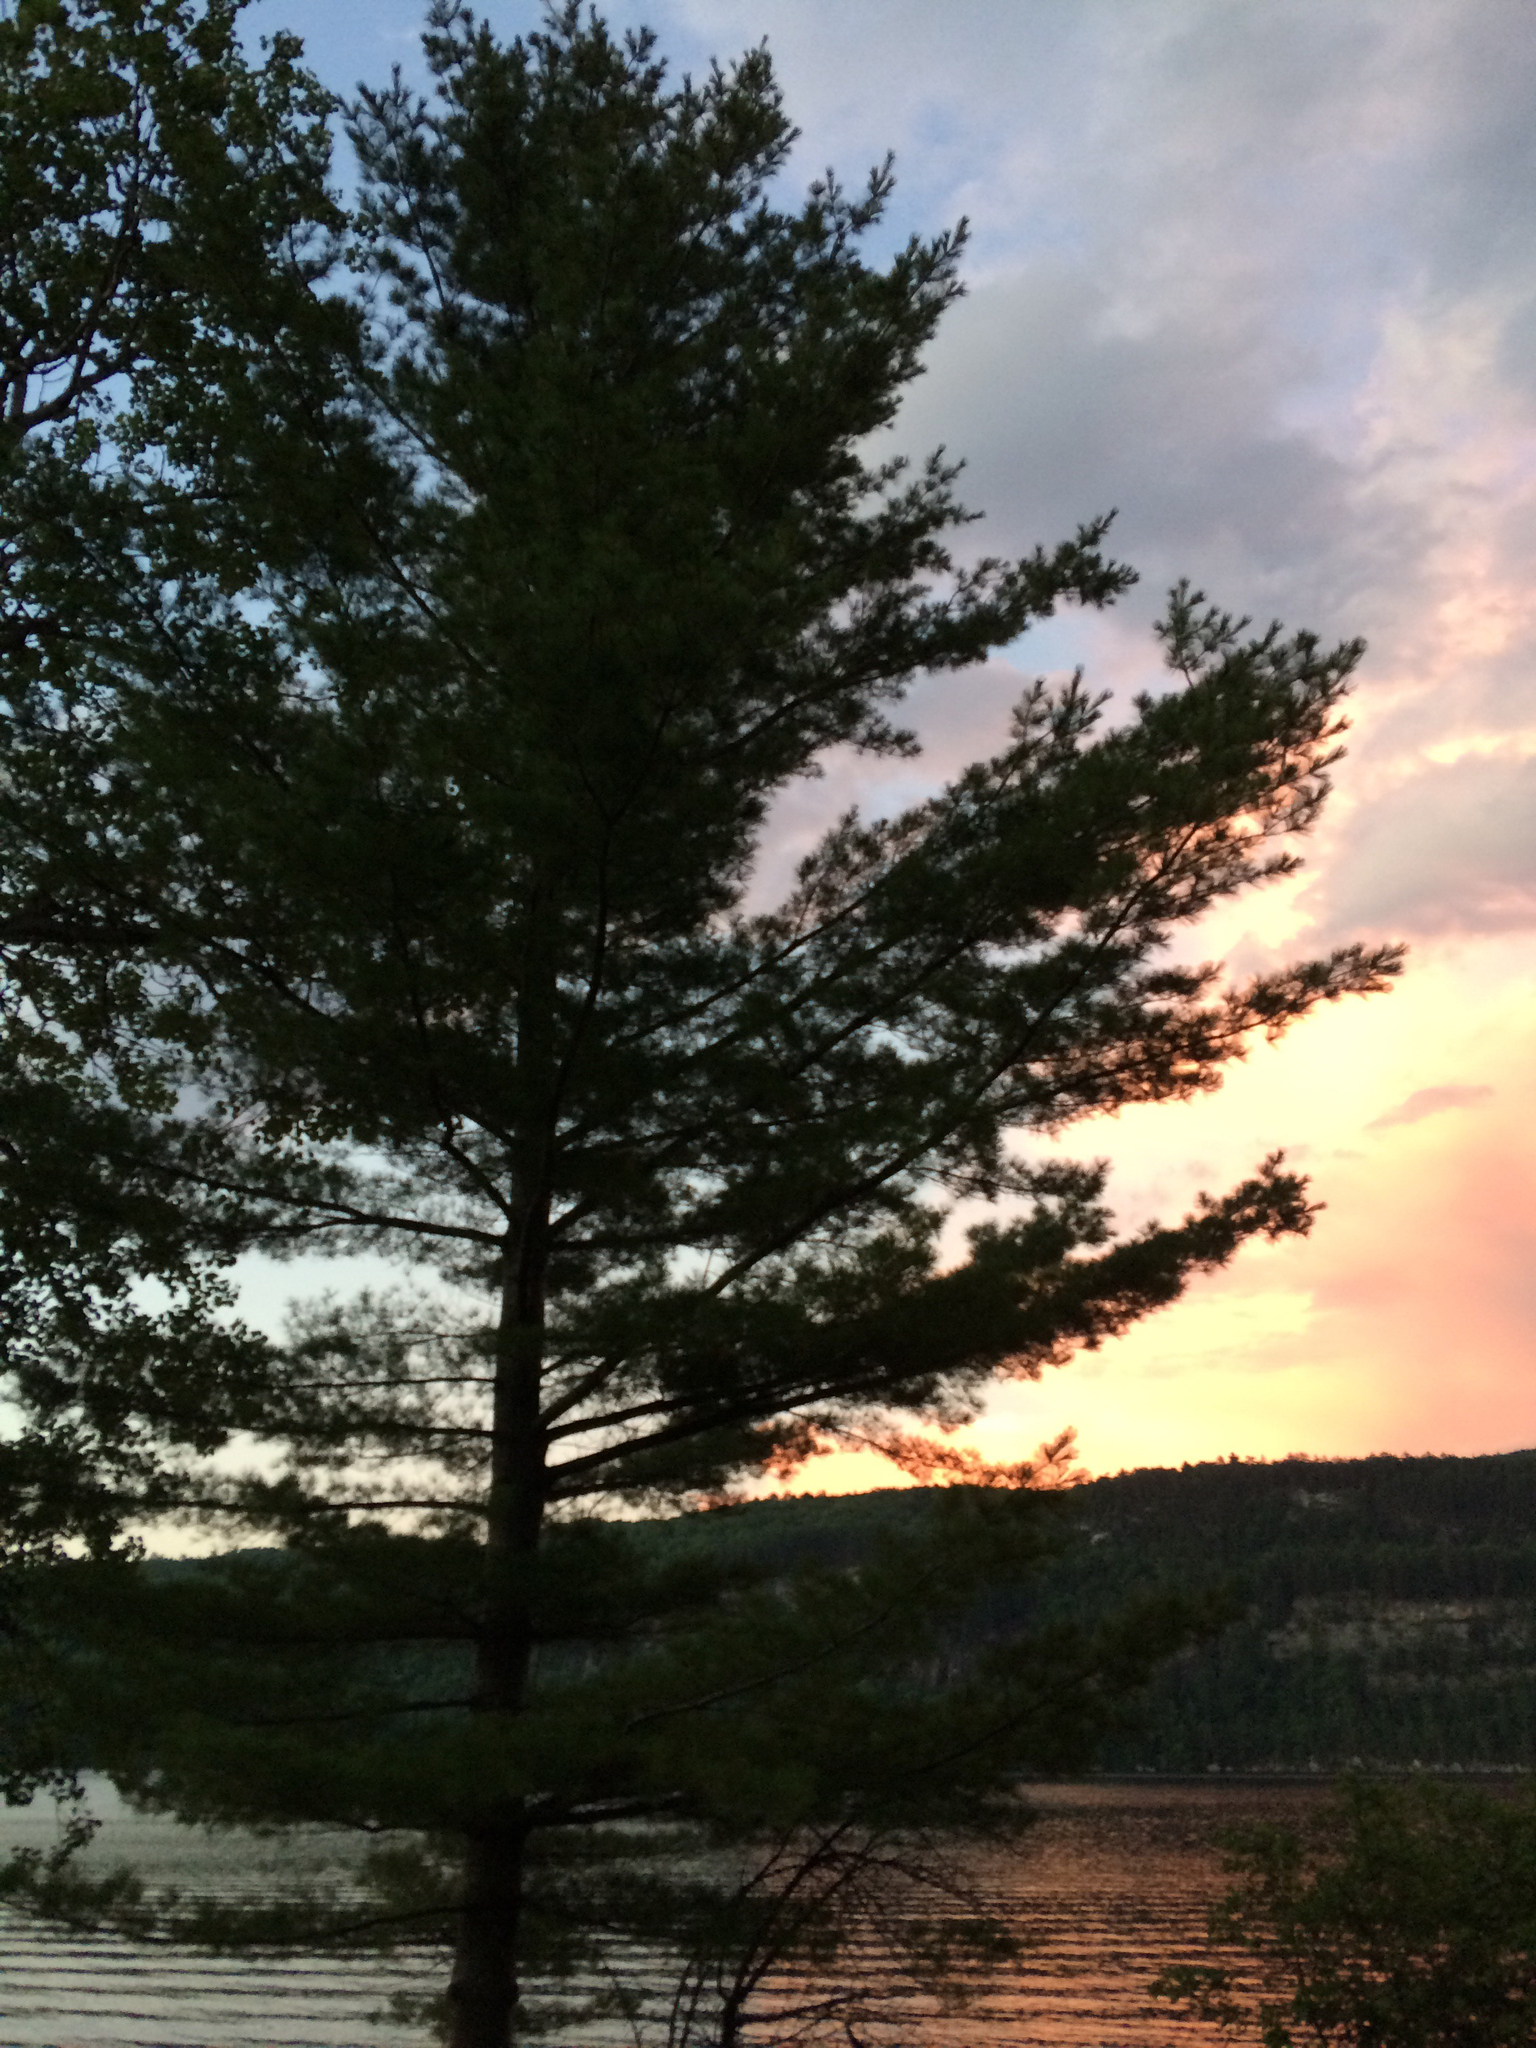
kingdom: Plantae
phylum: Tracheophyta
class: Pinopsida
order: Pinales
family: Pinaceae
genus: Pinus
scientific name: Pinus strobus
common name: Weymouth pine
